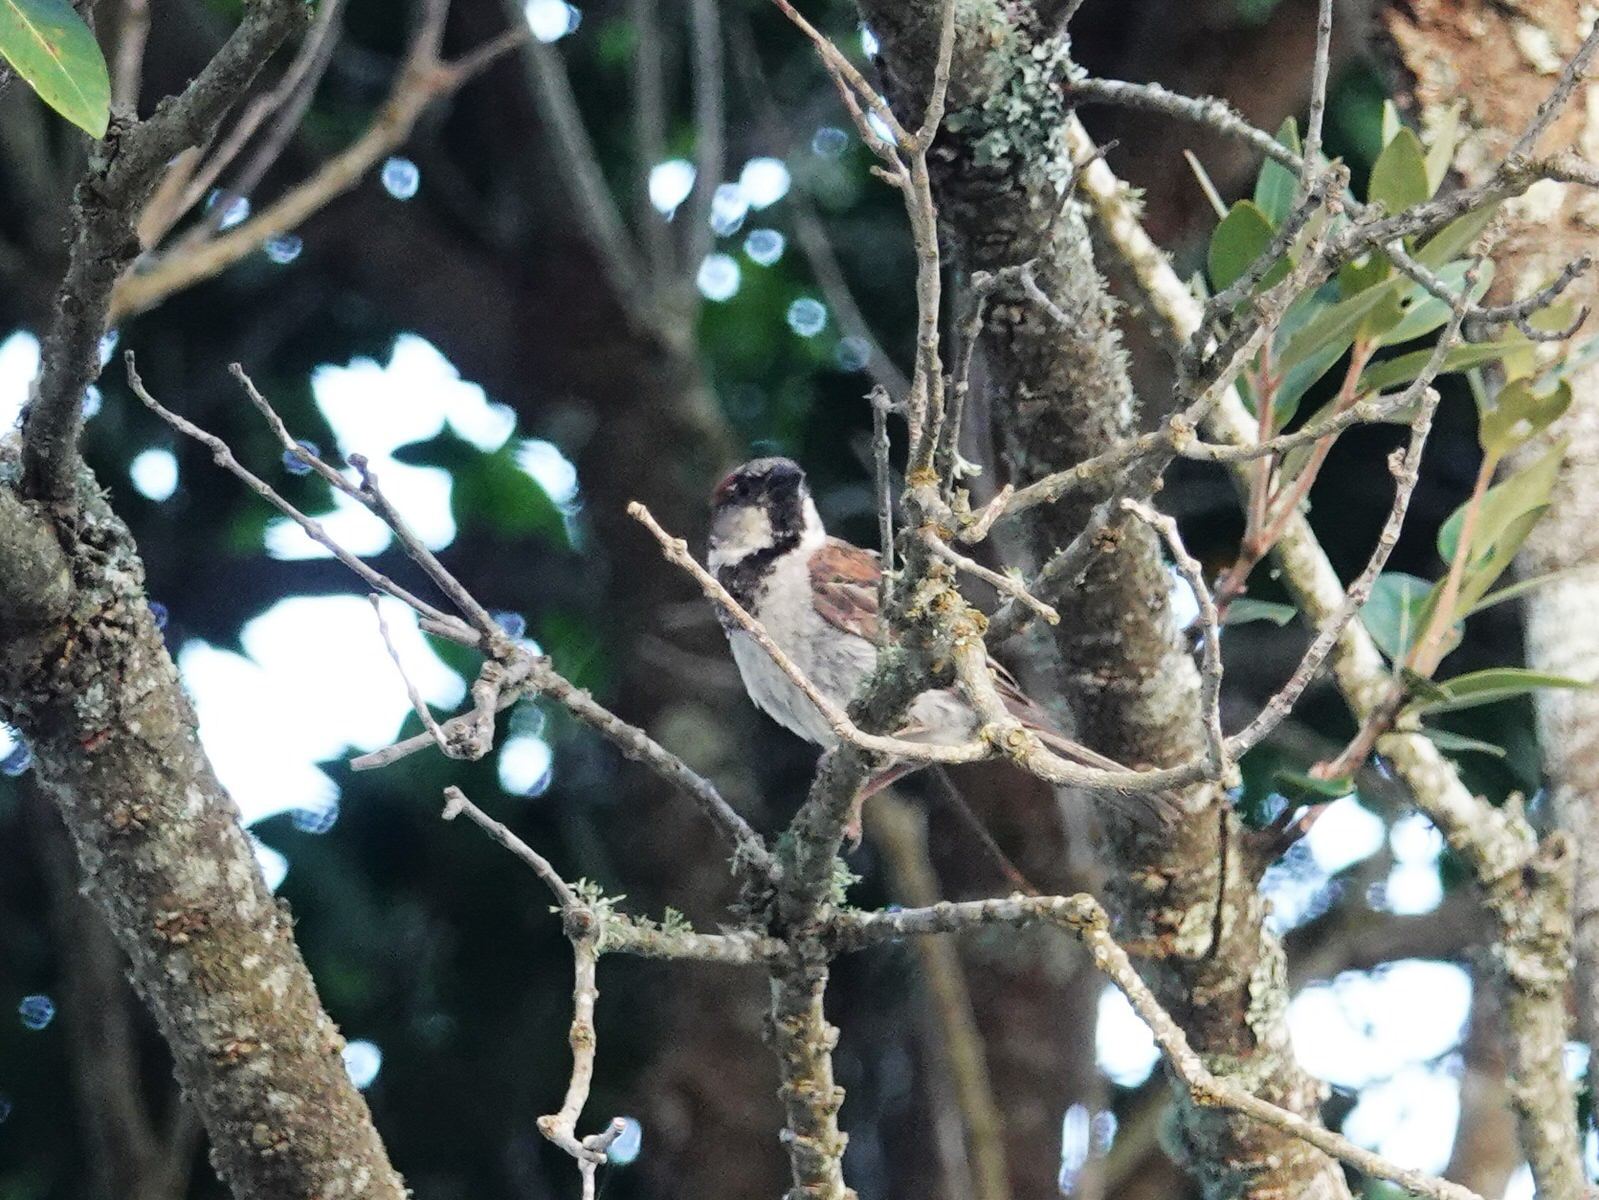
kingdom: Animalia
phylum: Chordata
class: Aves
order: Passeriformes
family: Passeridae
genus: Passer
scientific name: Passer domesticus
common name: House sparrow
